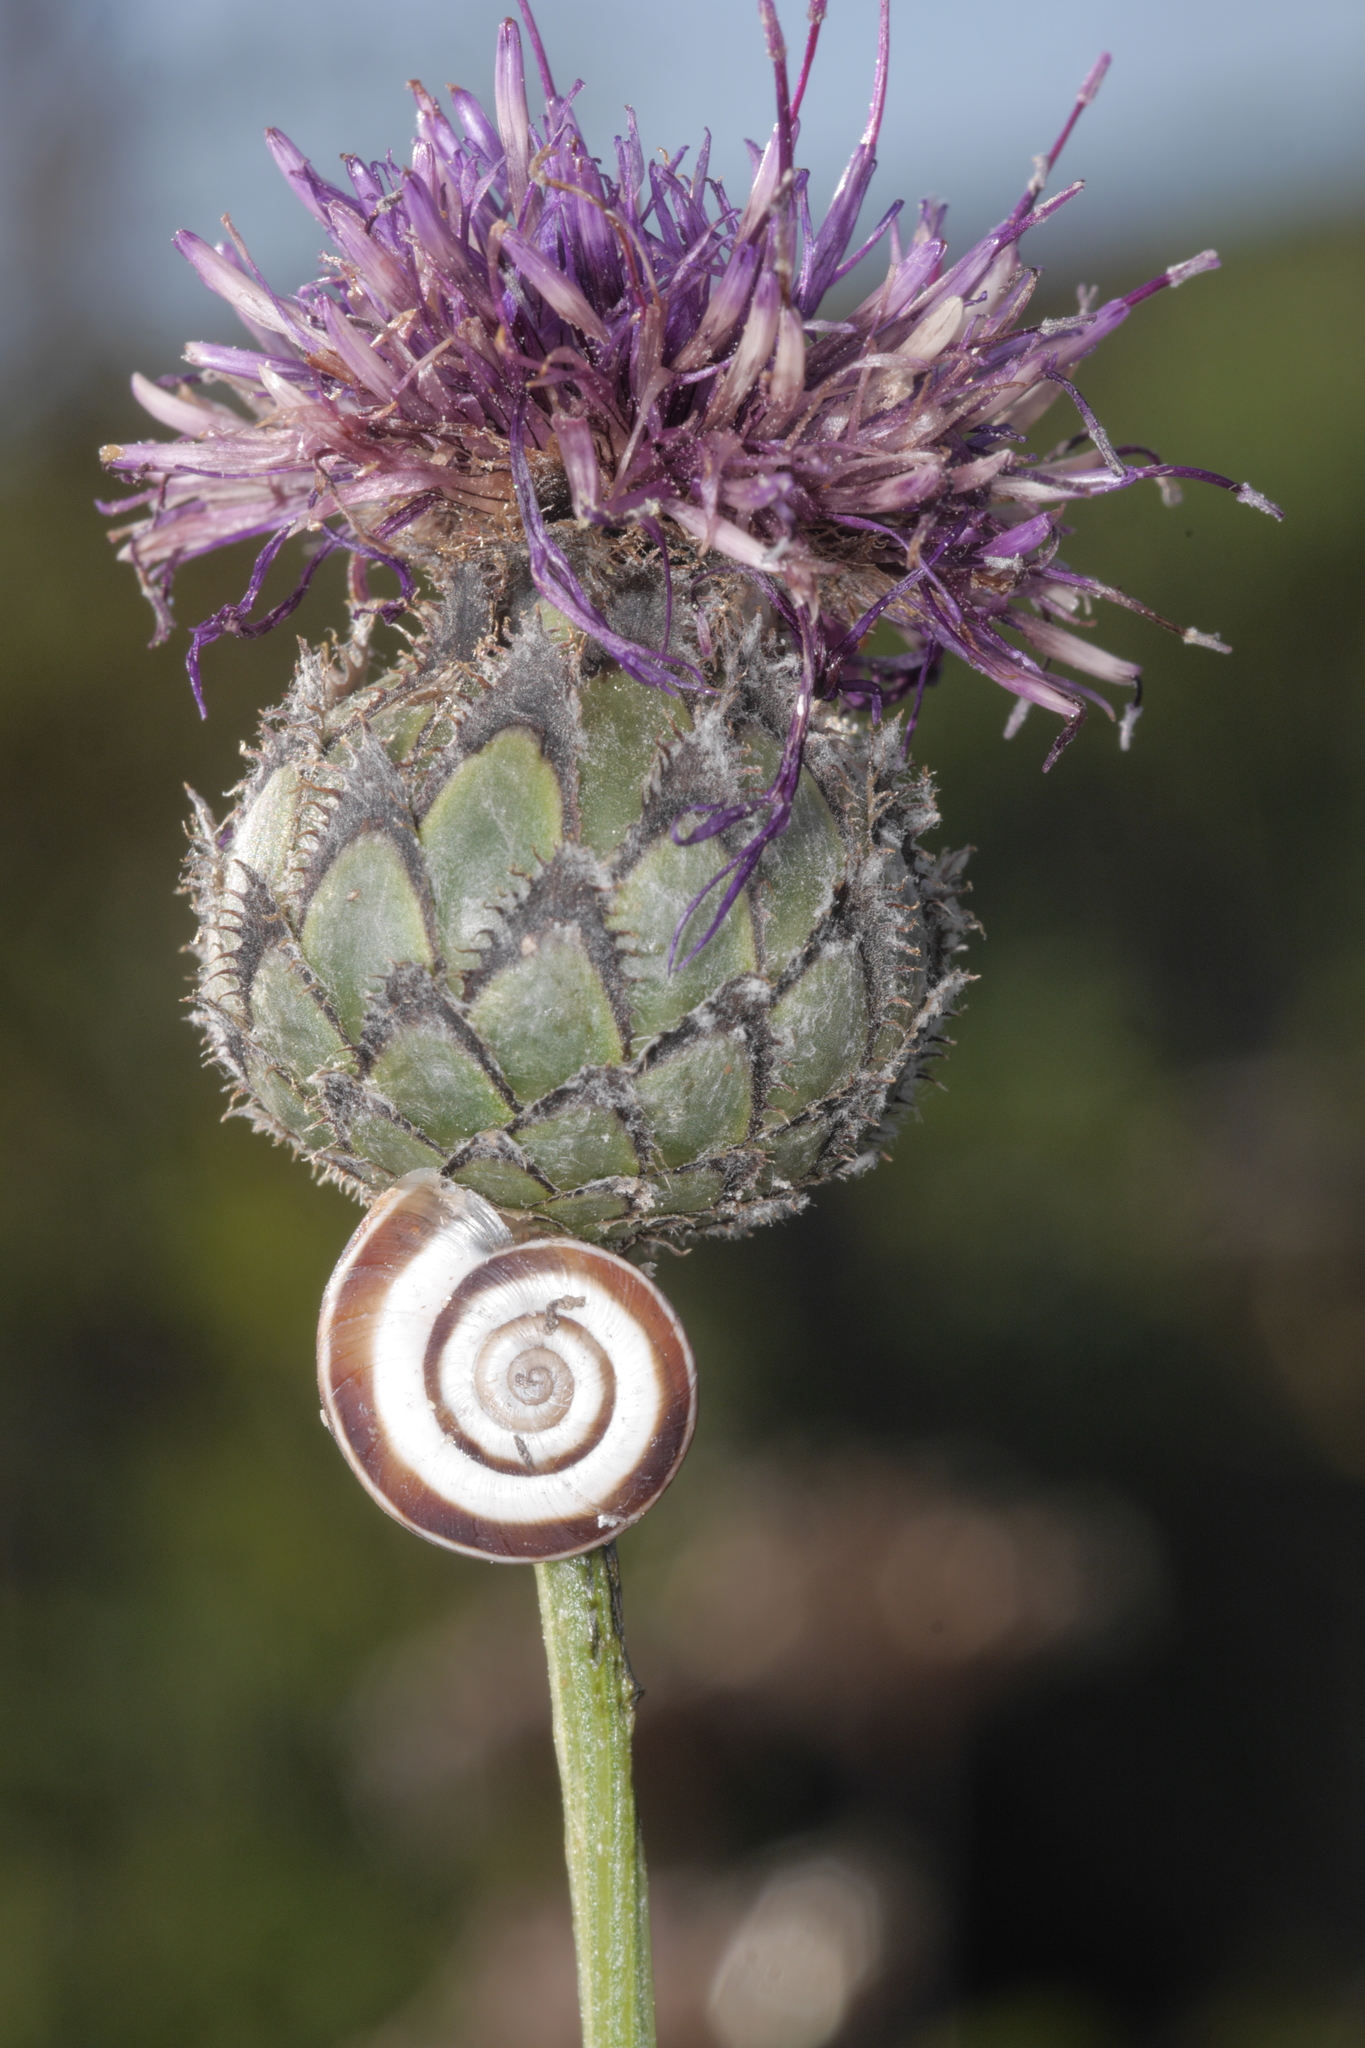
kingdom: Animalia
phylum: Mollusca
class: Gastropoda
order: Stylommatophora
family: Geomitridae
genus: Xerolenta
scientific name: Xerolenta obvia
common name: White heath snail
